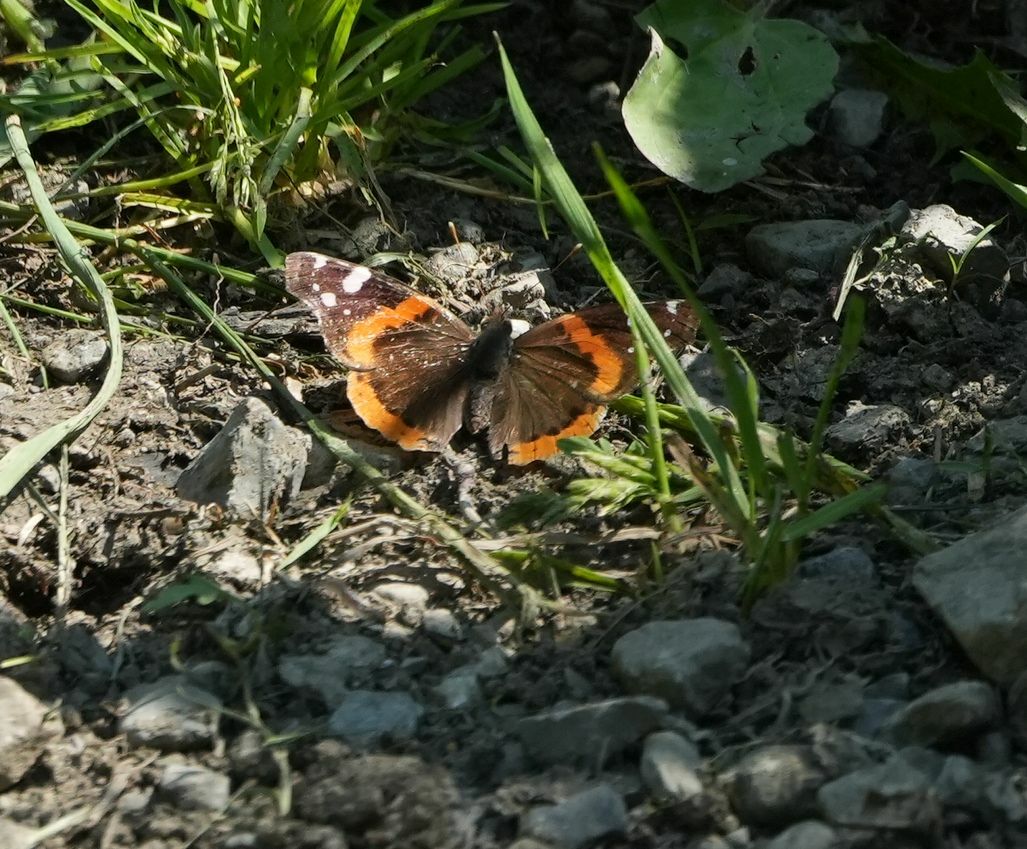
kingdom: Animalia
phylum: Arthropoda
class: Insecta
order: Lepidoptera
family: Nymphalidae
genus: Vanessa
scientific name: Vanessa atalanta
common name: Red admiral
